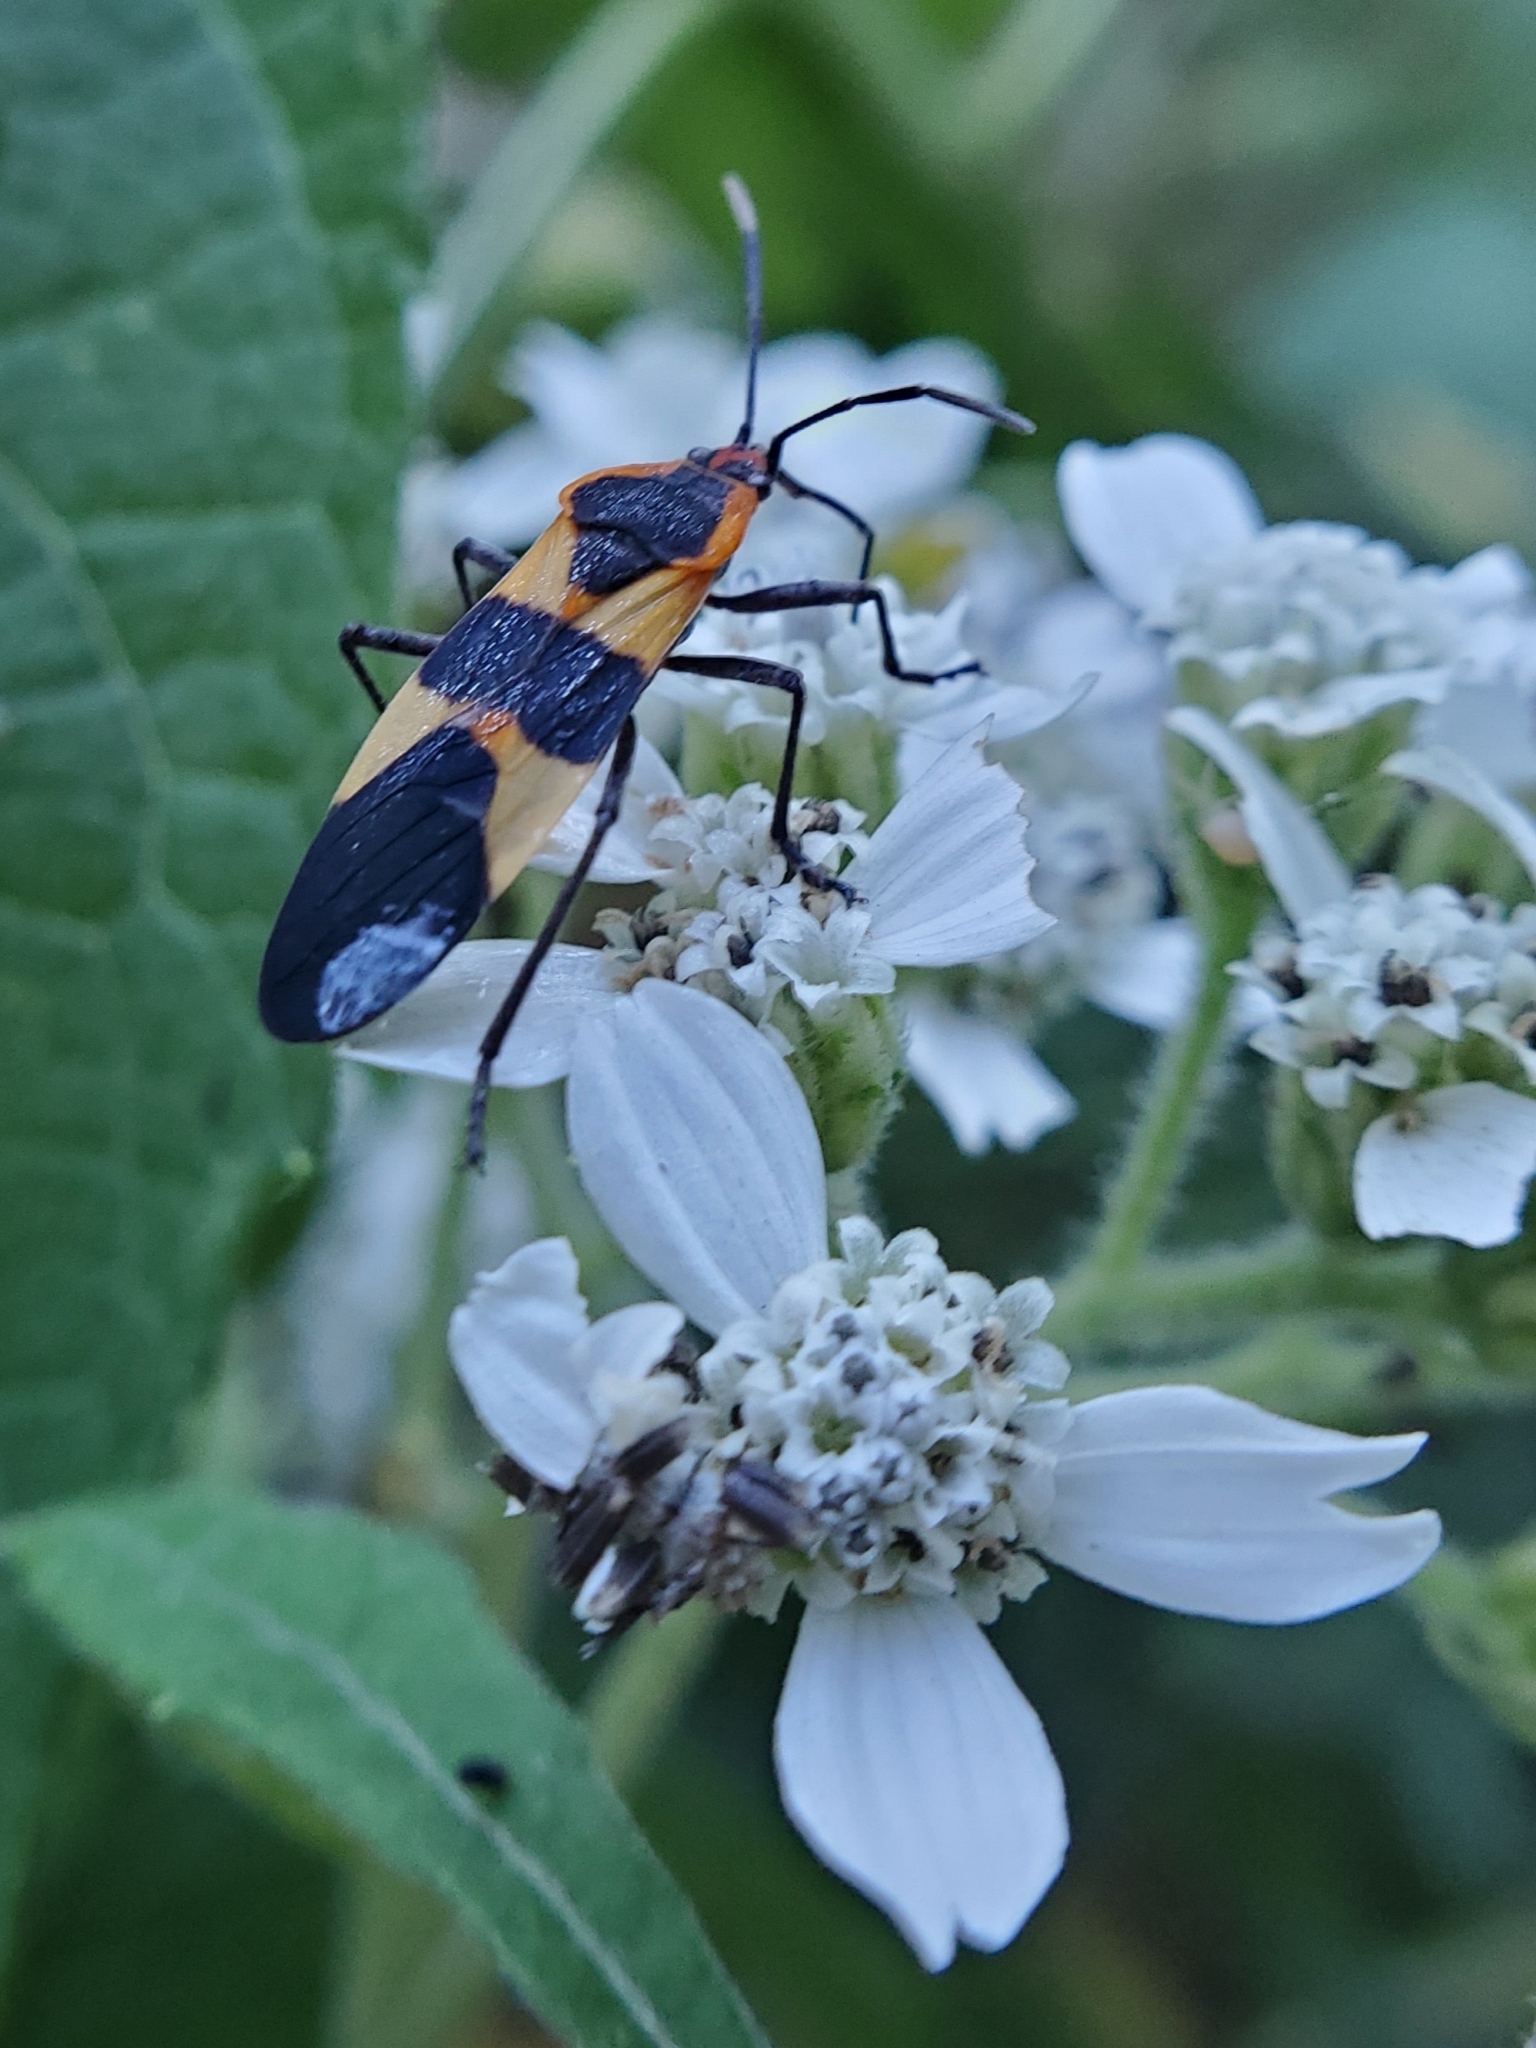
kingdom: Animalia
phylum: Arthropoda
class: Insecta
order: Hemiptera
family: Lygaeidae
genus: Oncopeltus
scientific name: Oncopeltus fasciatus
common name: Large milkweed bug
